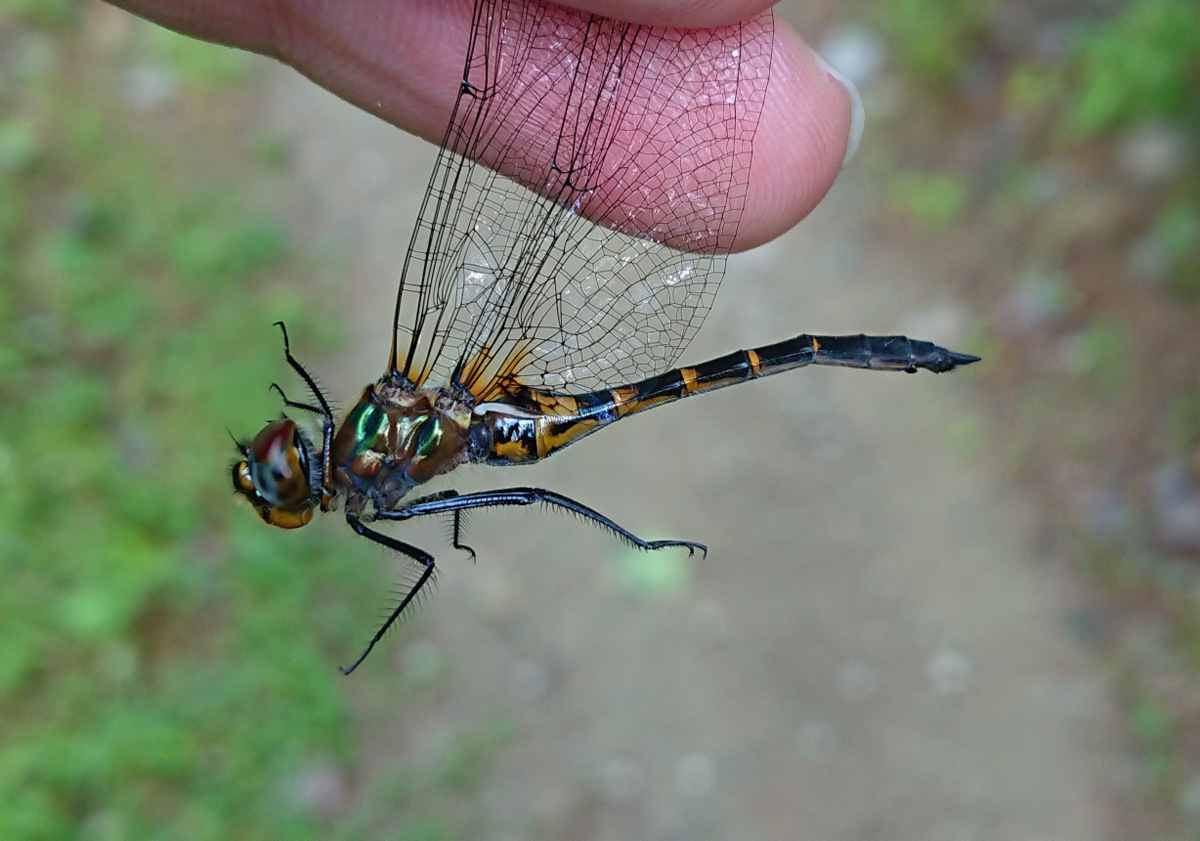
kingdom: Animalia
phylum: Arthropoda
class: Insecta
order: Odonata
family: Corduliidae
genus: Dorocordulia
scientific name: Dorocordulia lepida
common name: Petite emerald
